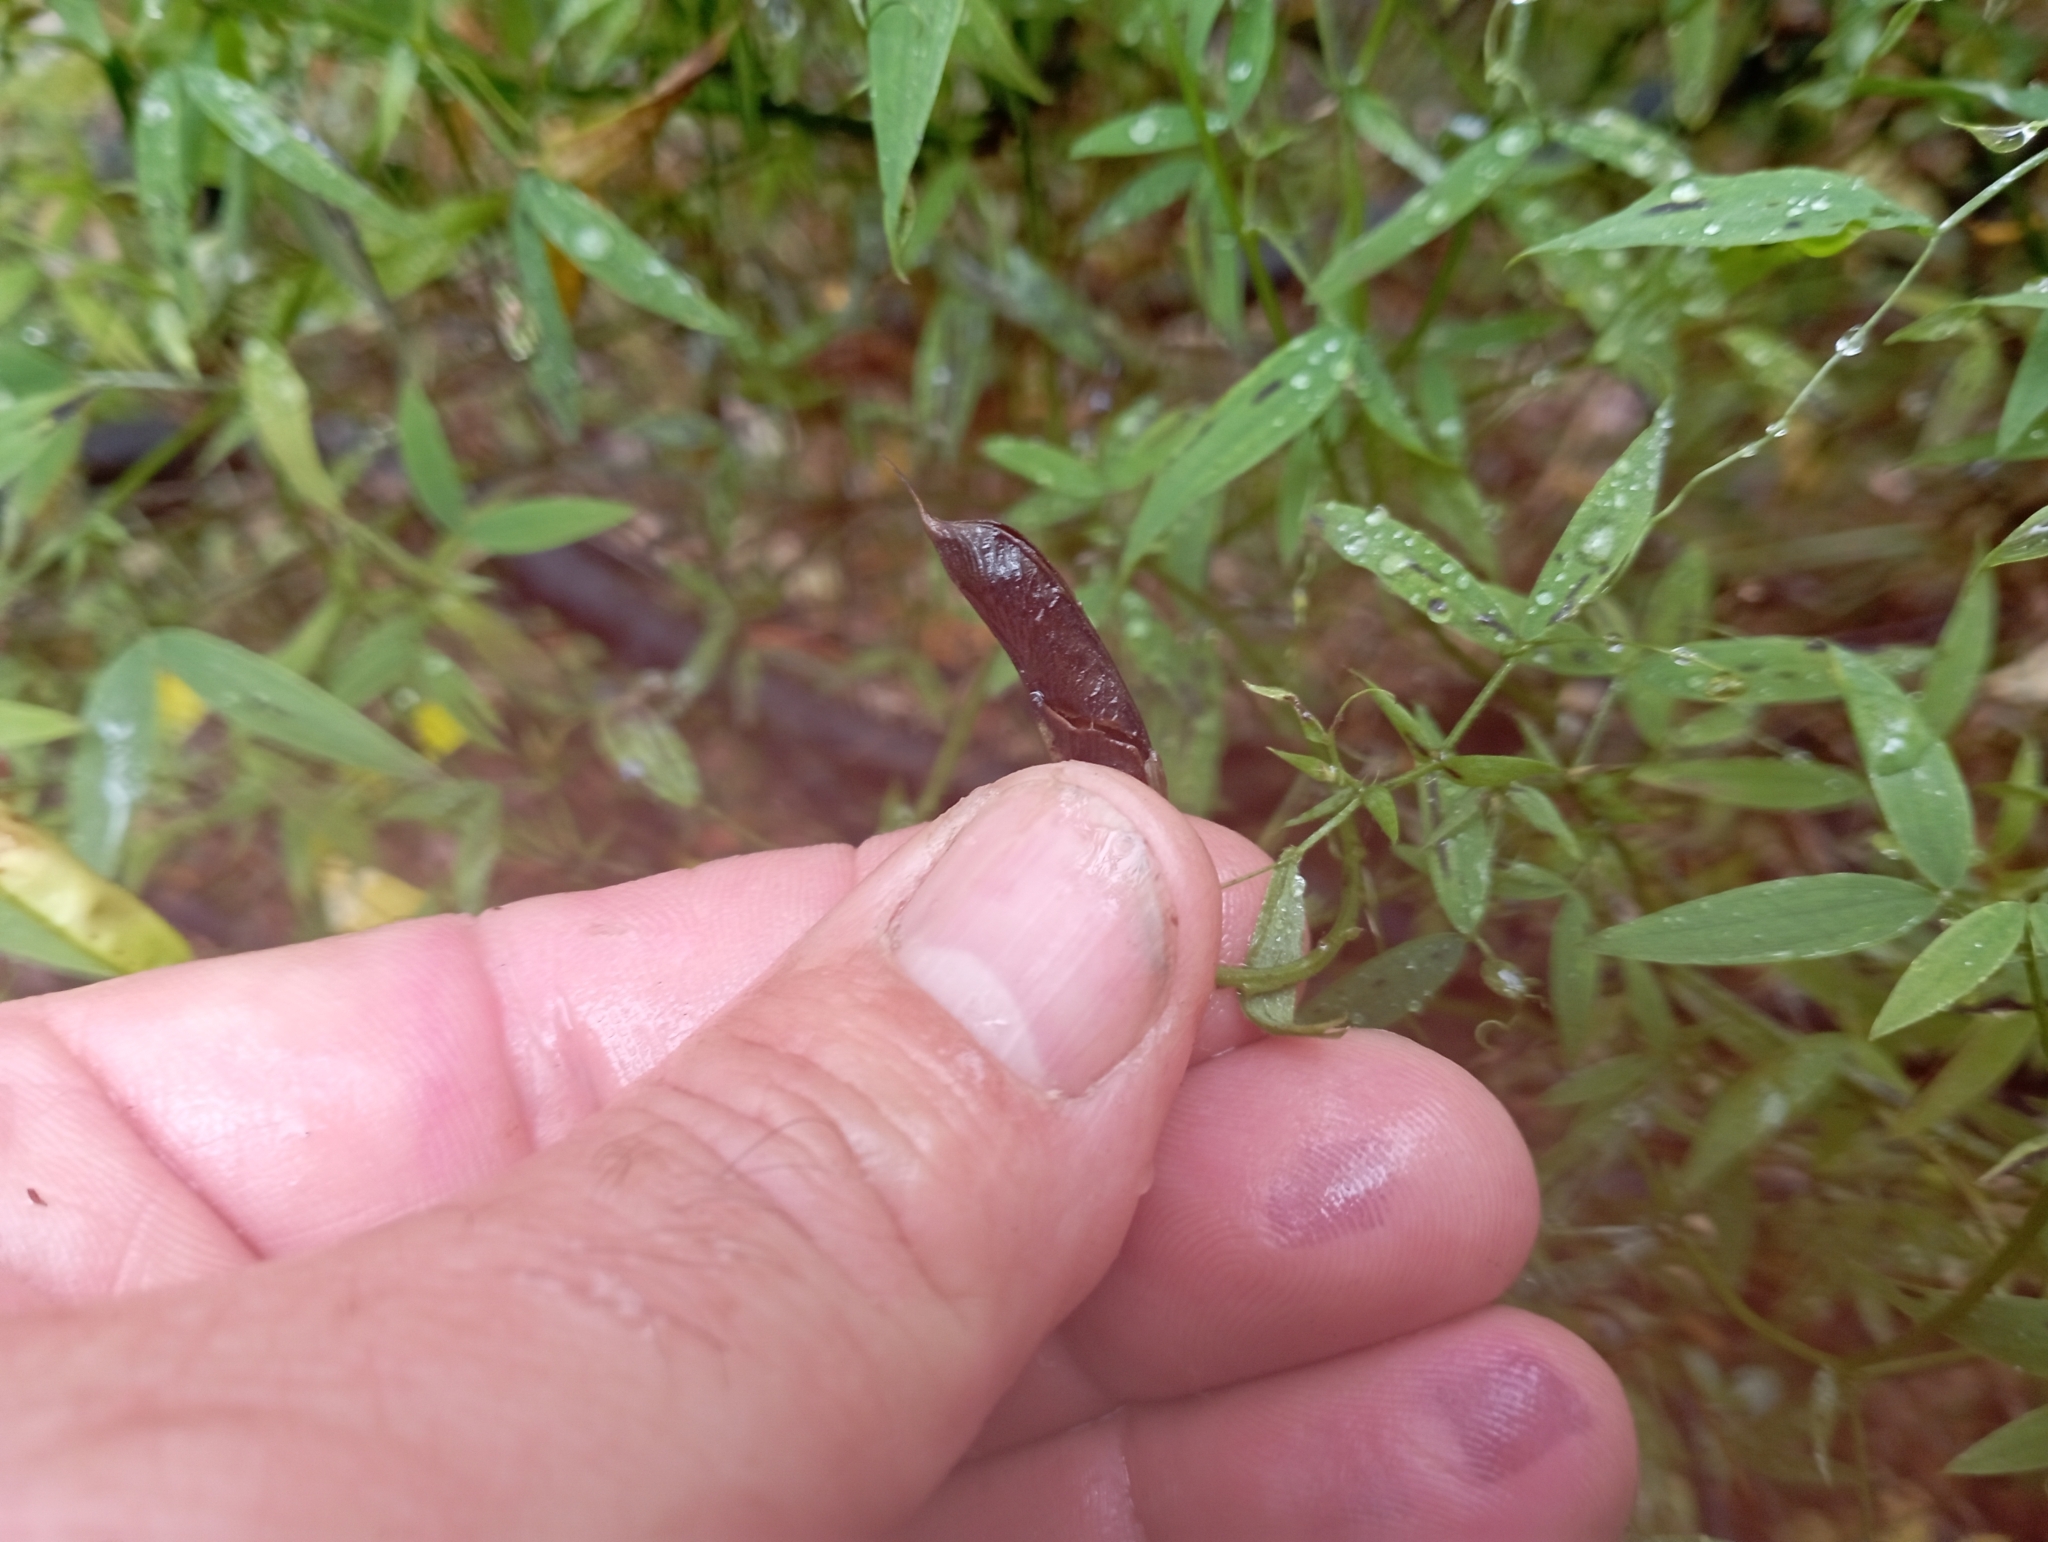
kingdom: Plantae
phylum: Tracheophyta
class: Magnoliopsida
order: Fabales
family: Fabaceae
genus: Lathyrus
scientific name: Lathyrus pratensis
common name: Meadow vetchling
